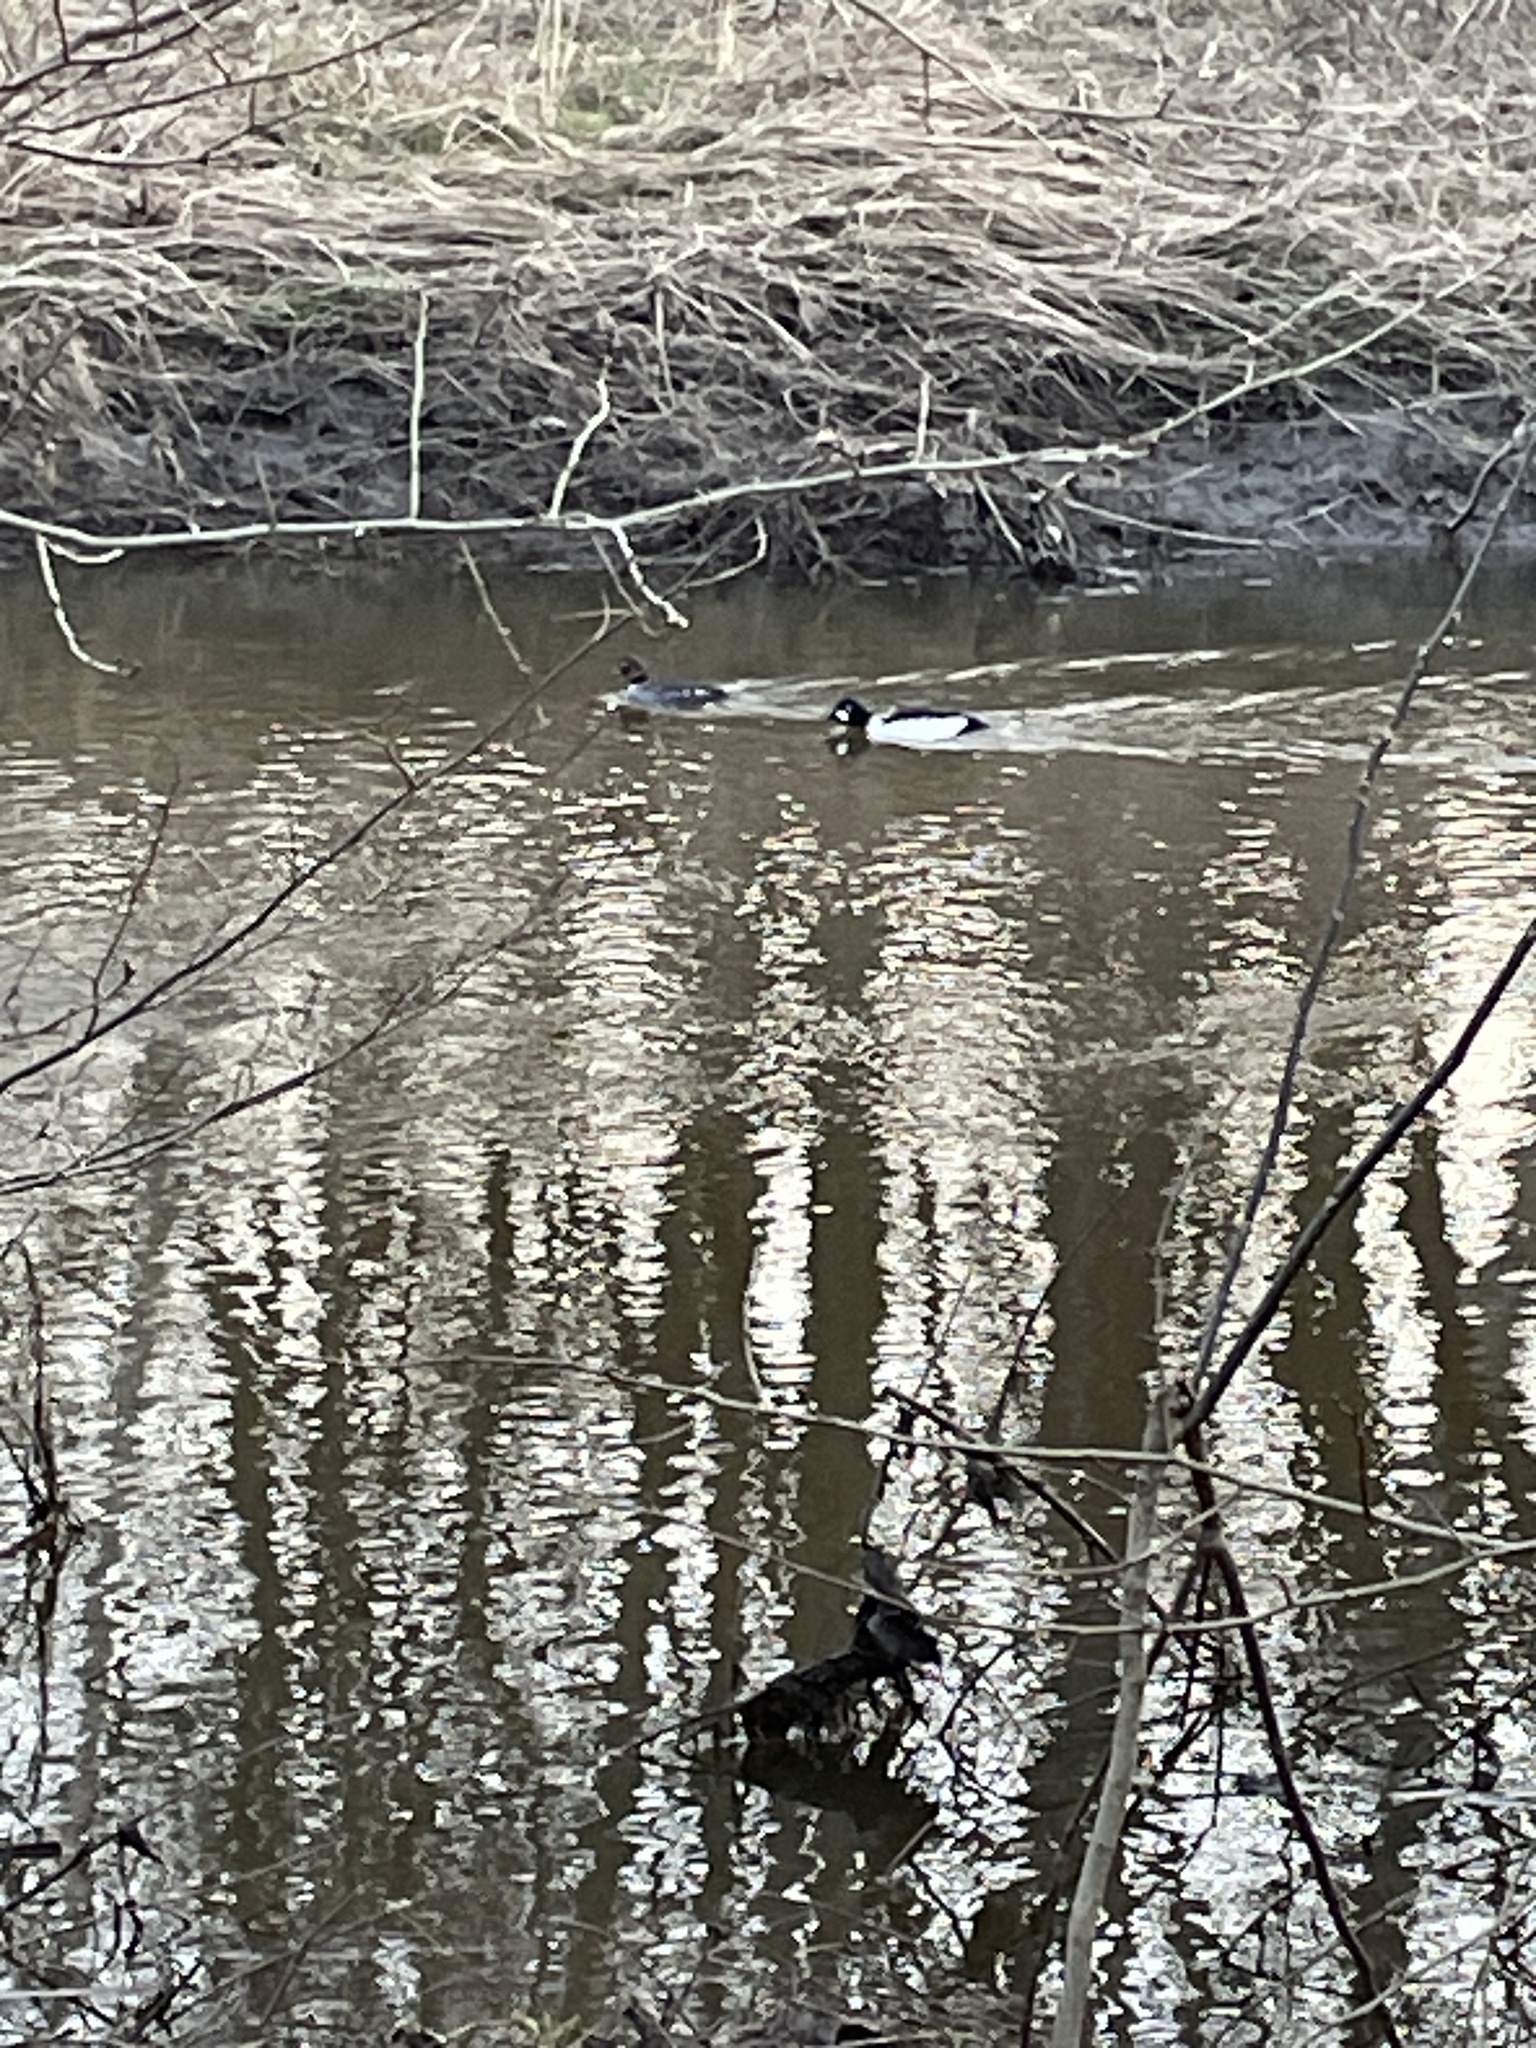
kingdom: Animalia
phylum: Chordata
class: Aves
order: Anseriformes
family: Anatidae
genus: Bucephala
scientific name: Bucephala clangula
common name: Common goldeneye
